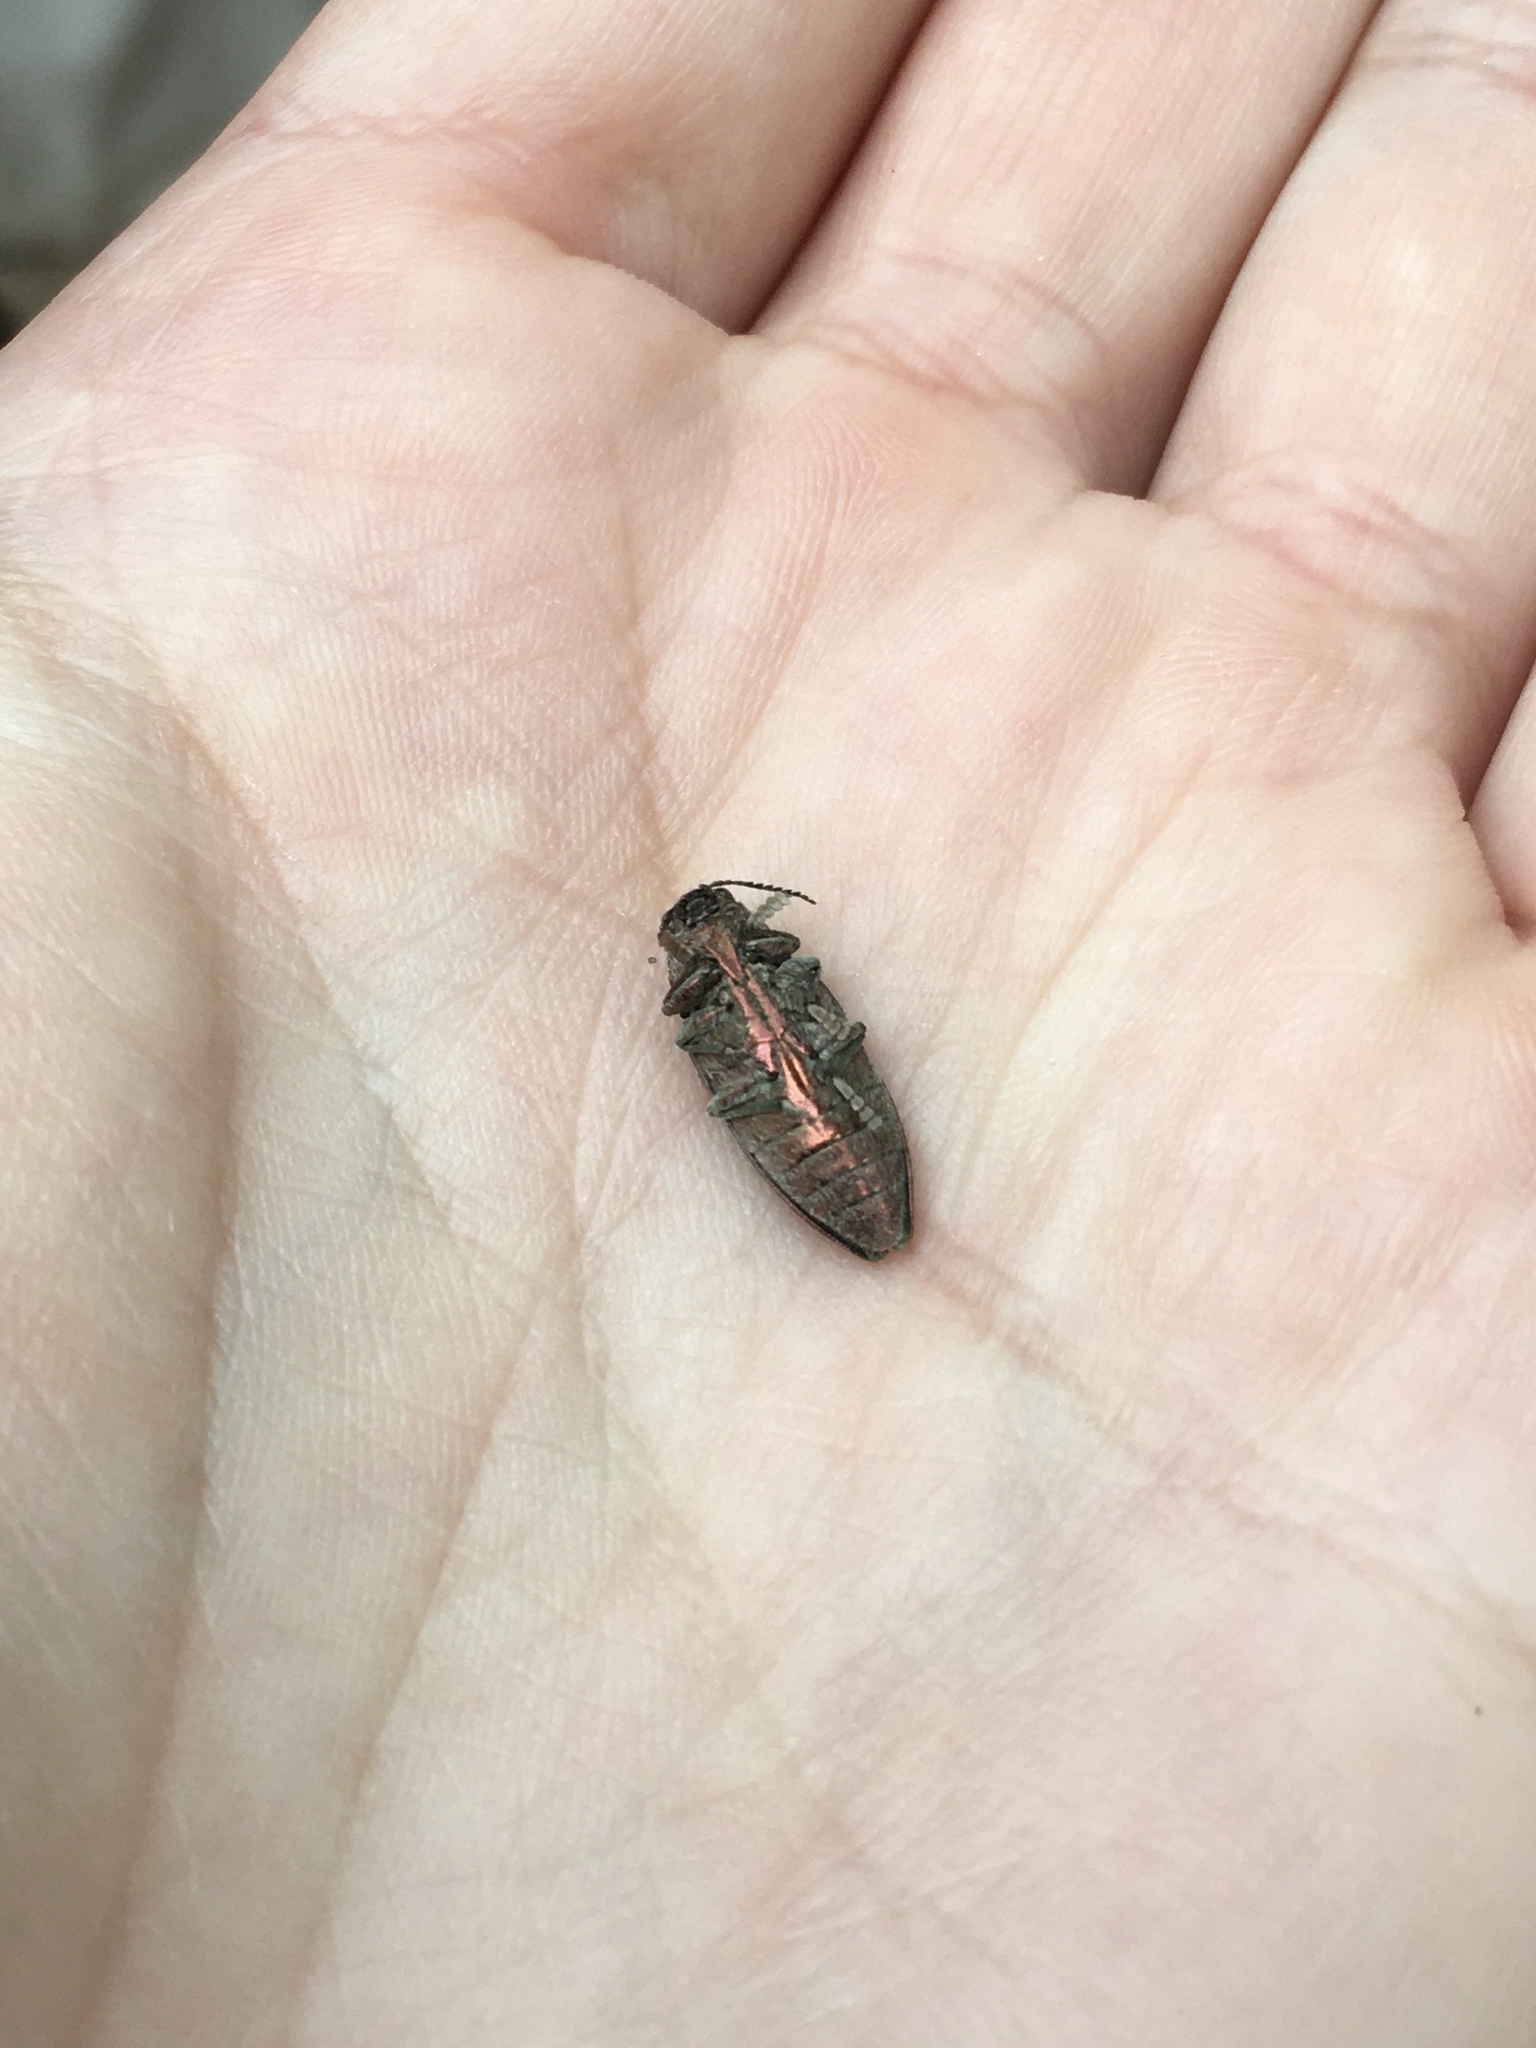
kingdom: Animalia
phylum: Arthropoda
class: Insecta
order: Coleoptera
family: Buprestidae
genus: Buprestis
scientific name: Buprestis striata
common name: Striated jewel beetle
